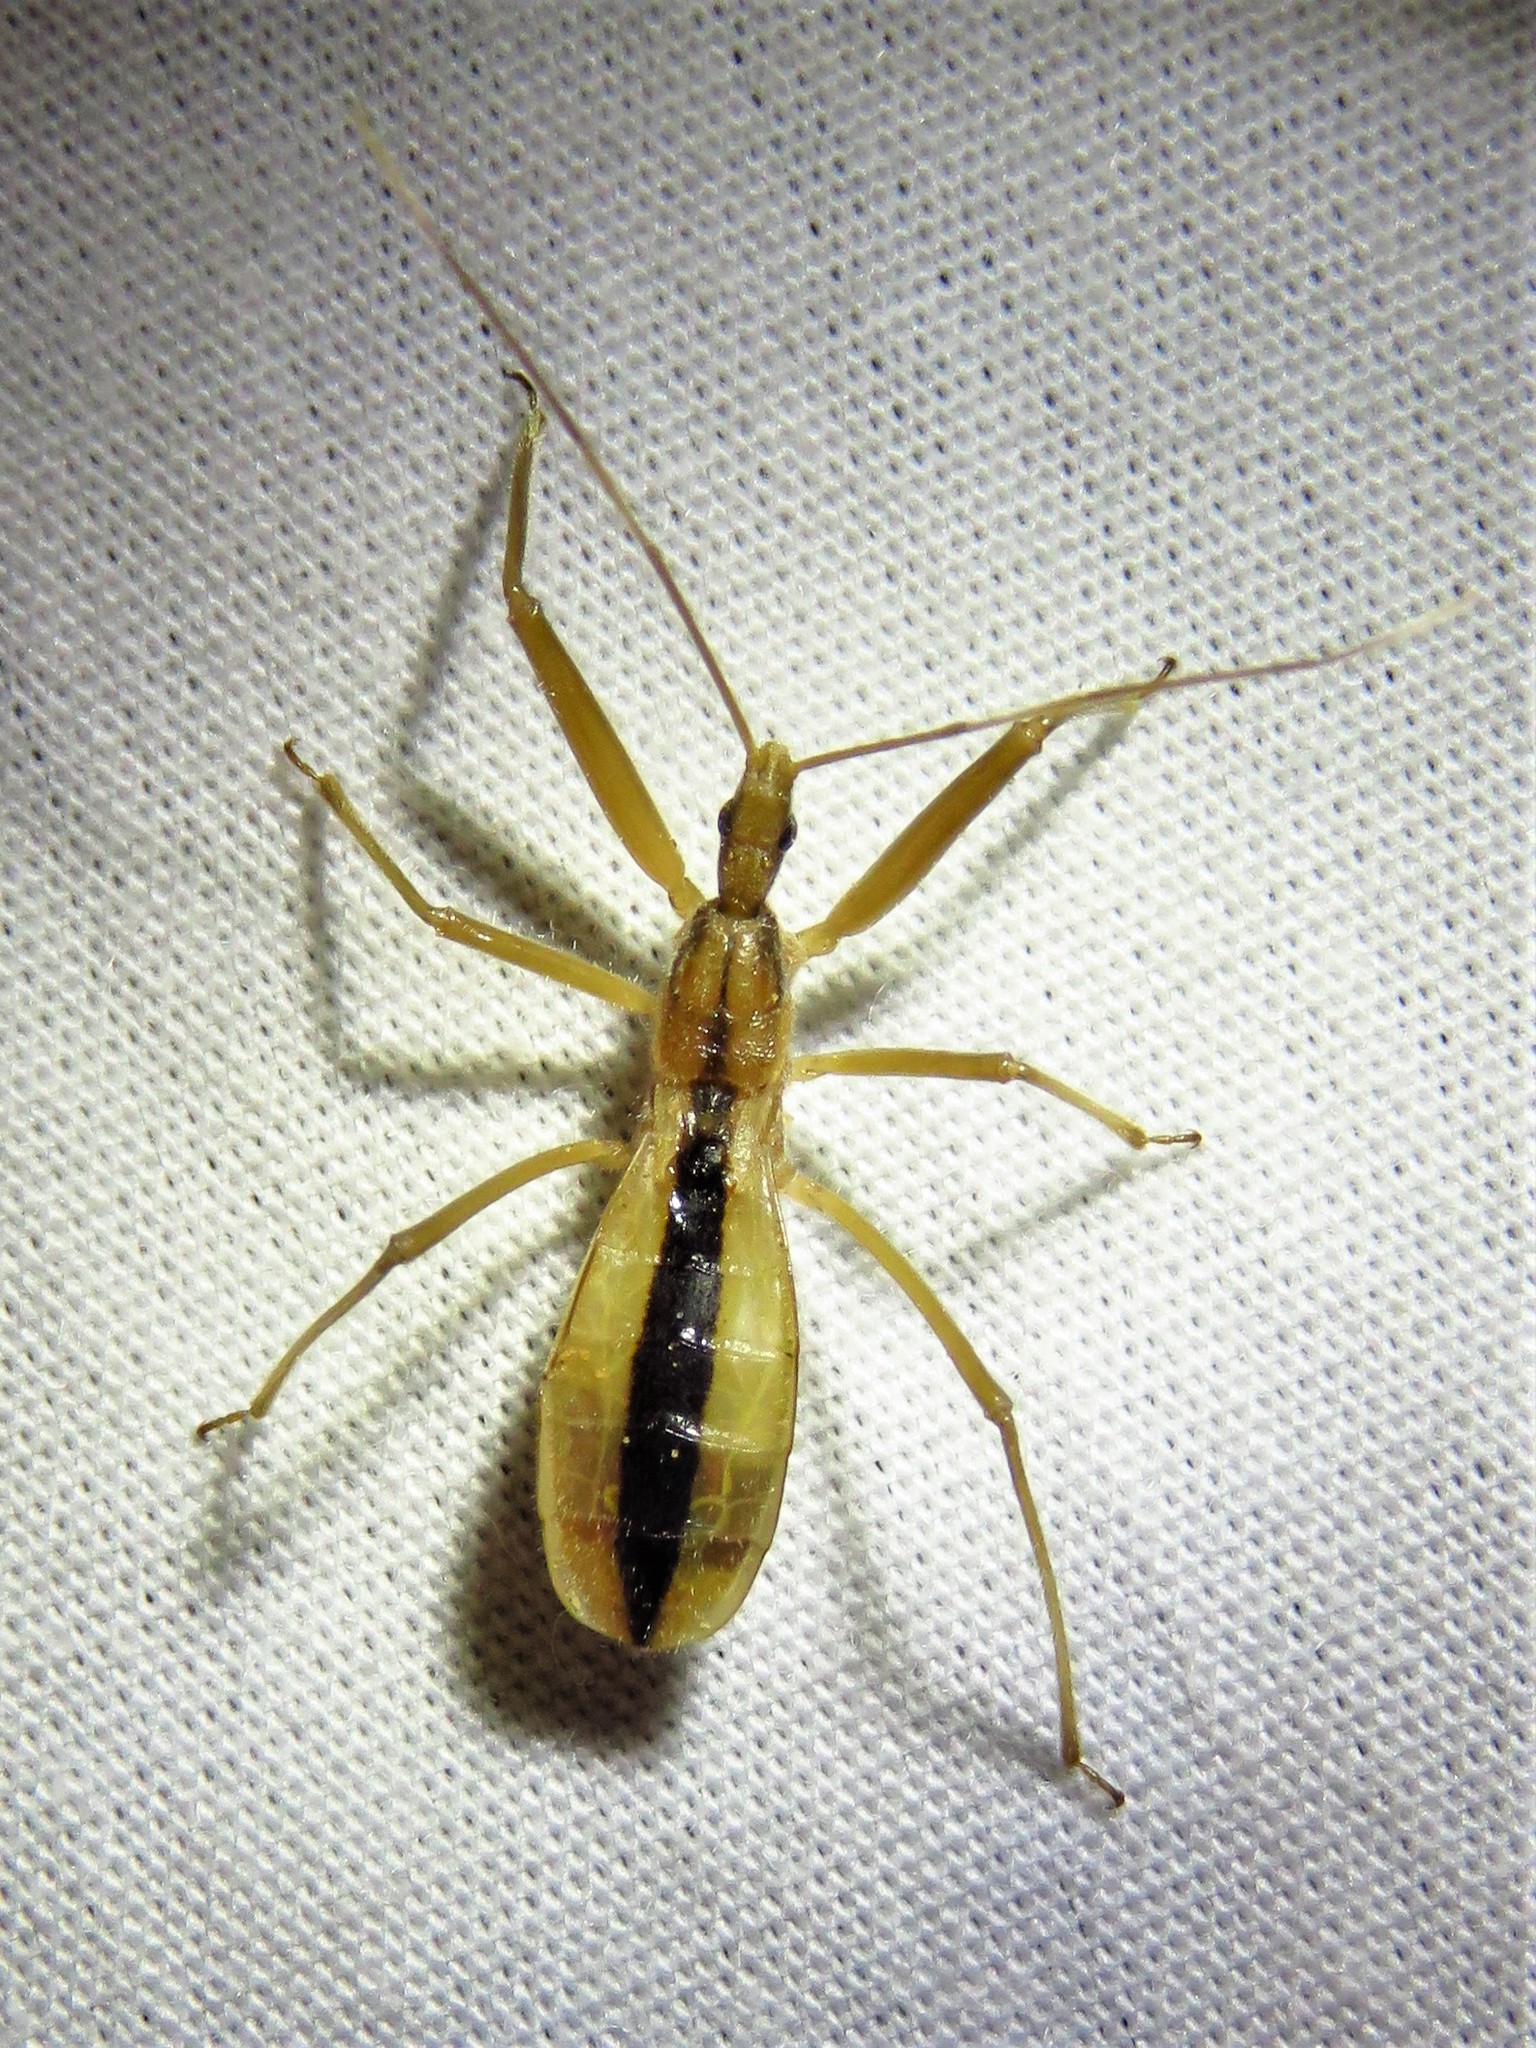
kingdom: Animalia
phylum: Arthropoda
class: Insecta
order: Hemiptera
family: Reduviidae
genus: Fitchia
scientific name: Fitchia aptera
